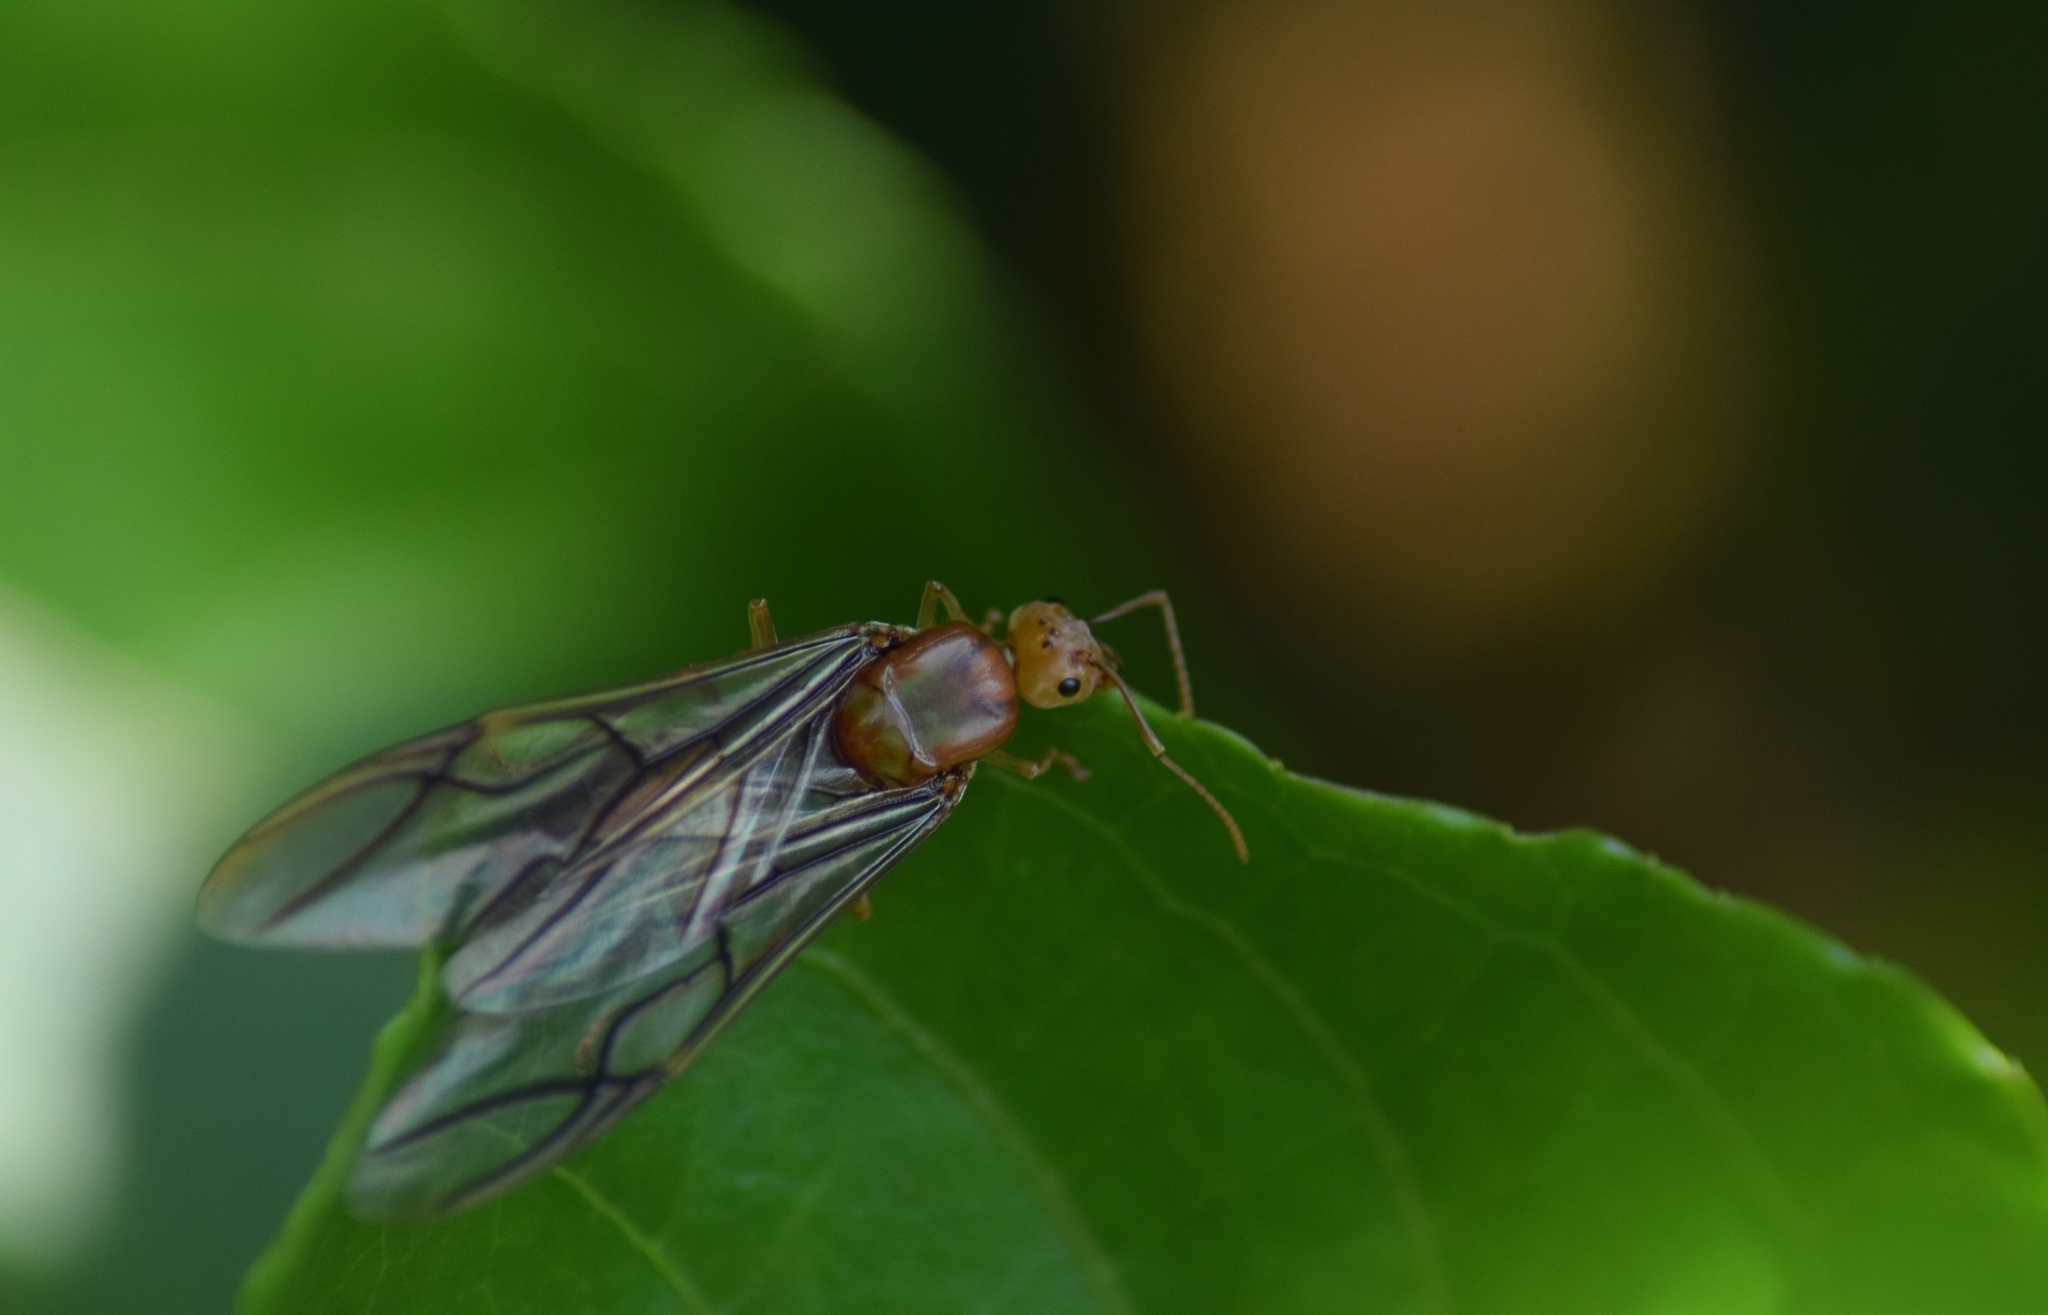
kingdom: Animalia
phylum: Arthropoda
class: Insecta
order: Hymenoptera
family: Formicidae
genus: Oecophylla
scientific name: Oecophylla smaragdina
